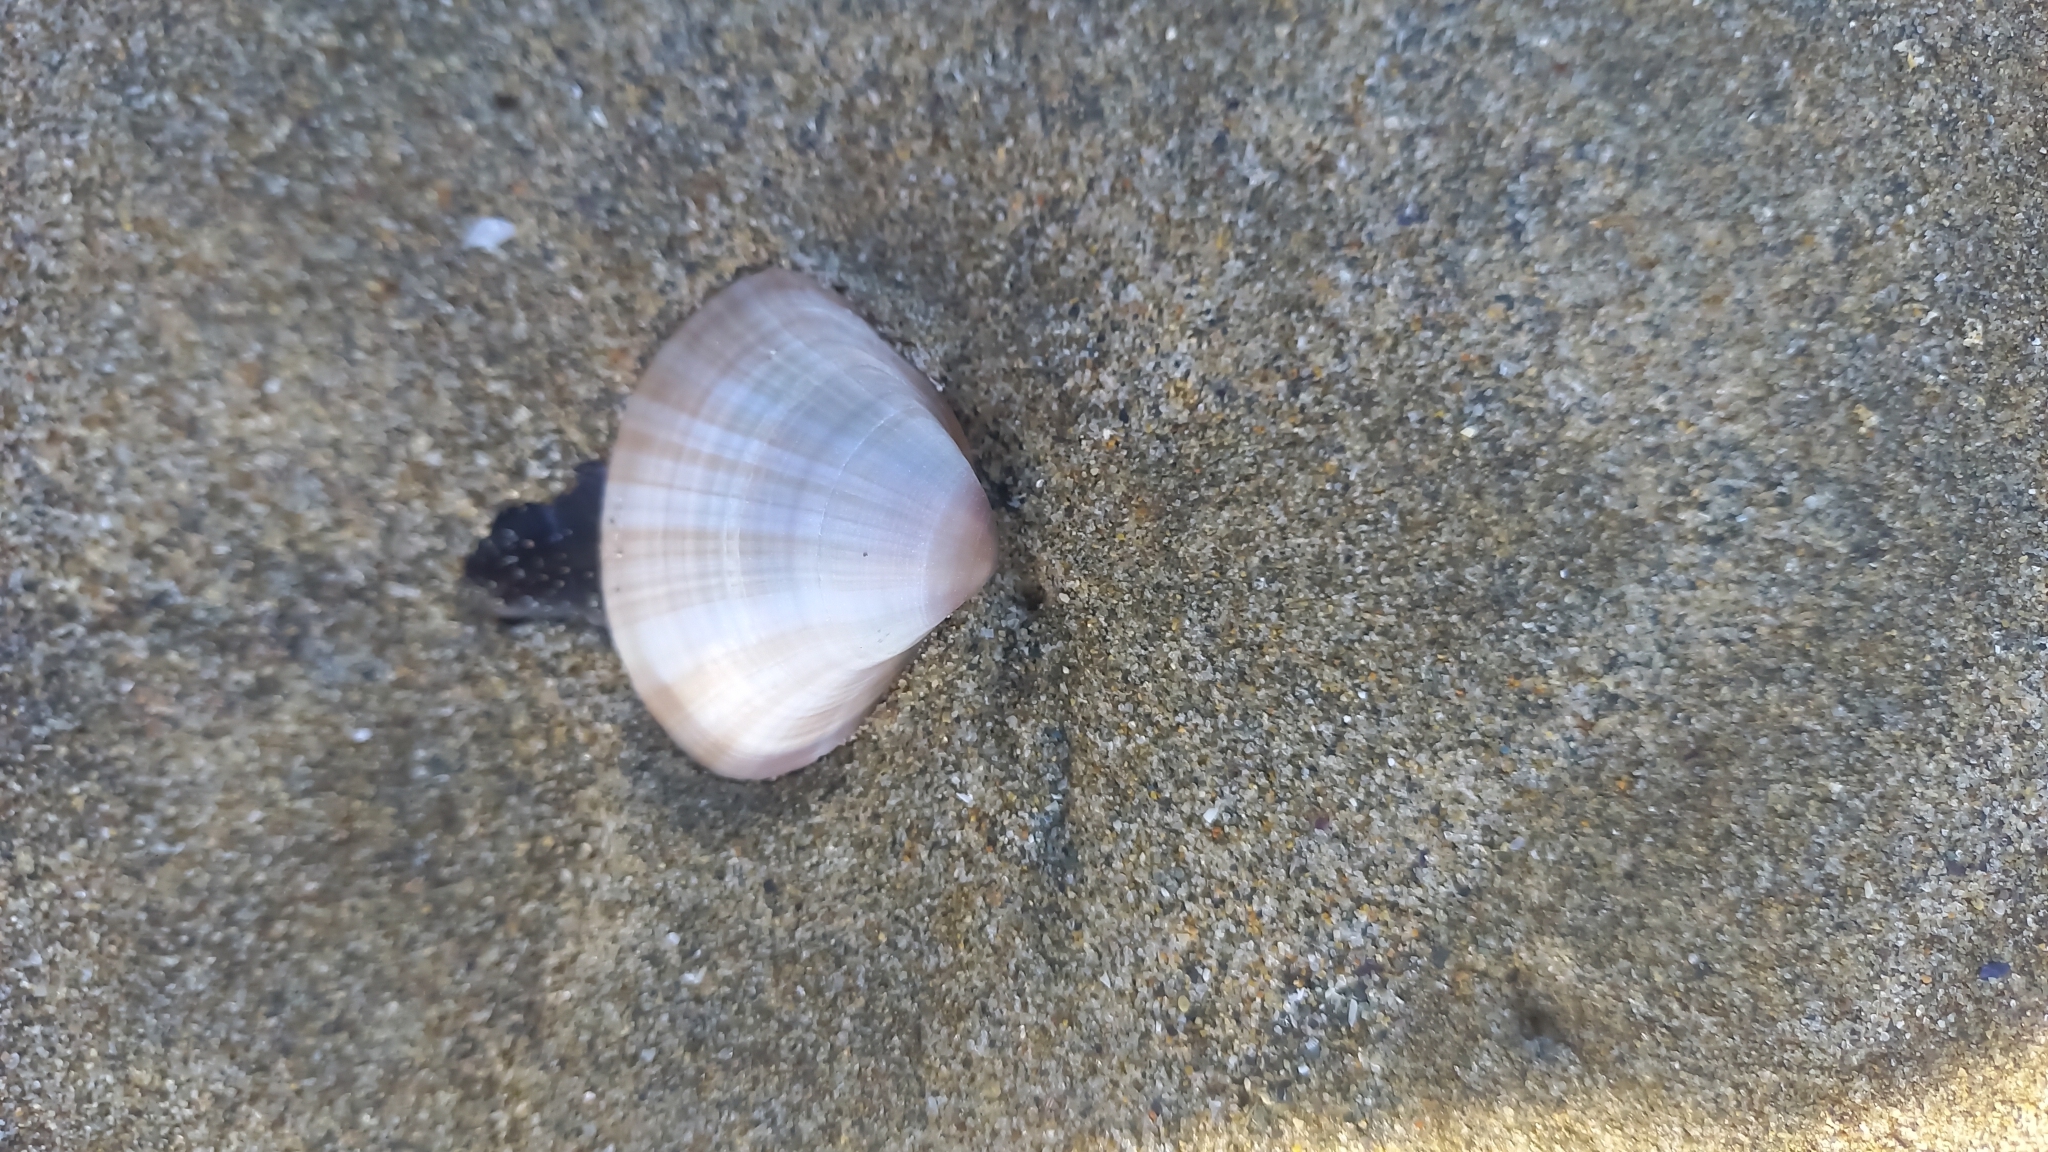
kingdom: Animalia
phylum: Mollusca
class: Bivalvia
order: Venerida
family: Mactridae
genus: Mactra
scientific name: Mactra stultorum
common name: Rayed trough shell
